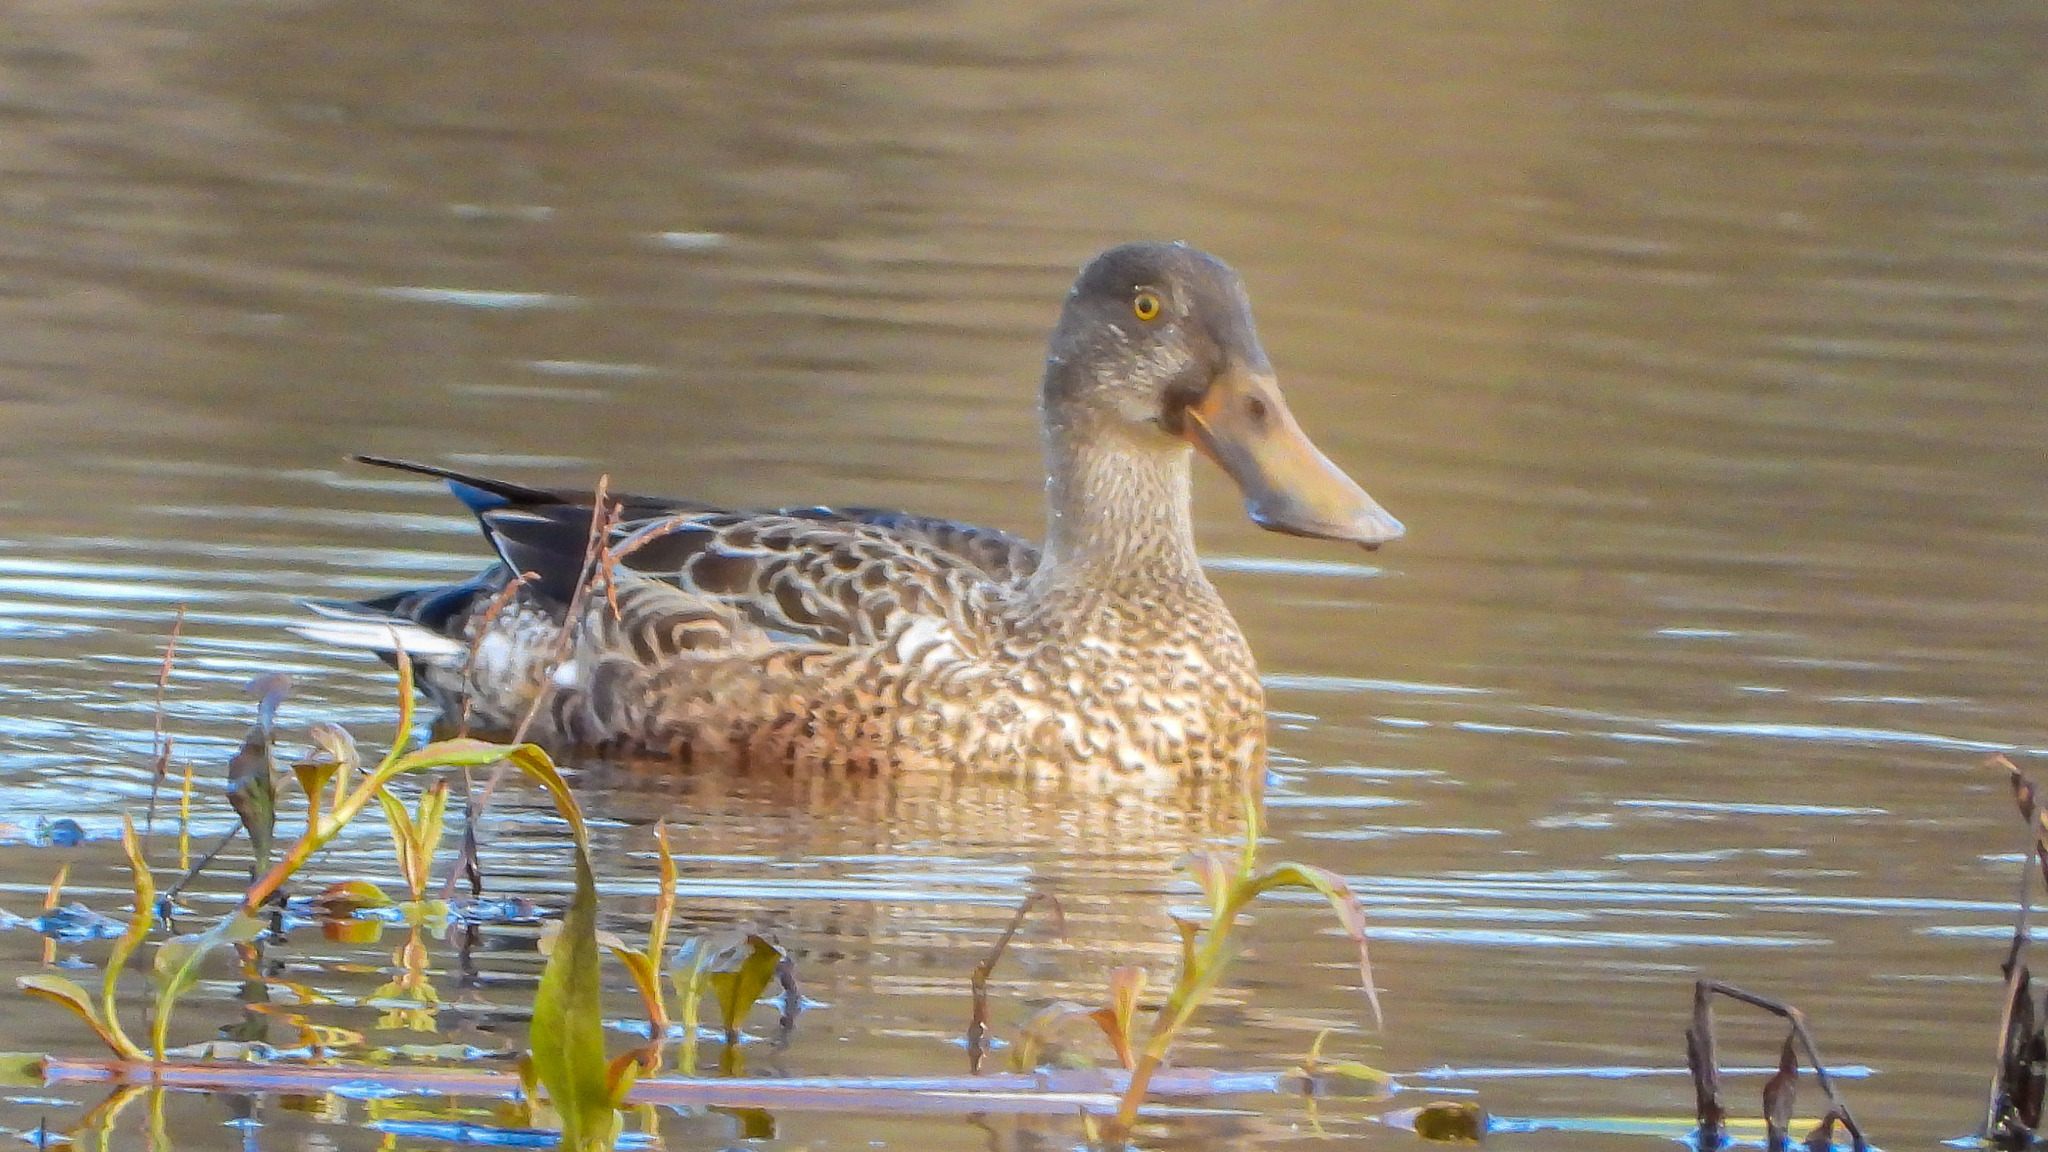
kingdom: Animalia
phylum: Chordata
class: Aves
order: Anseriformes
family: Anatidae
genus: Spatula
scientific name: Spatula clypeata
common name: Northern shoveler
